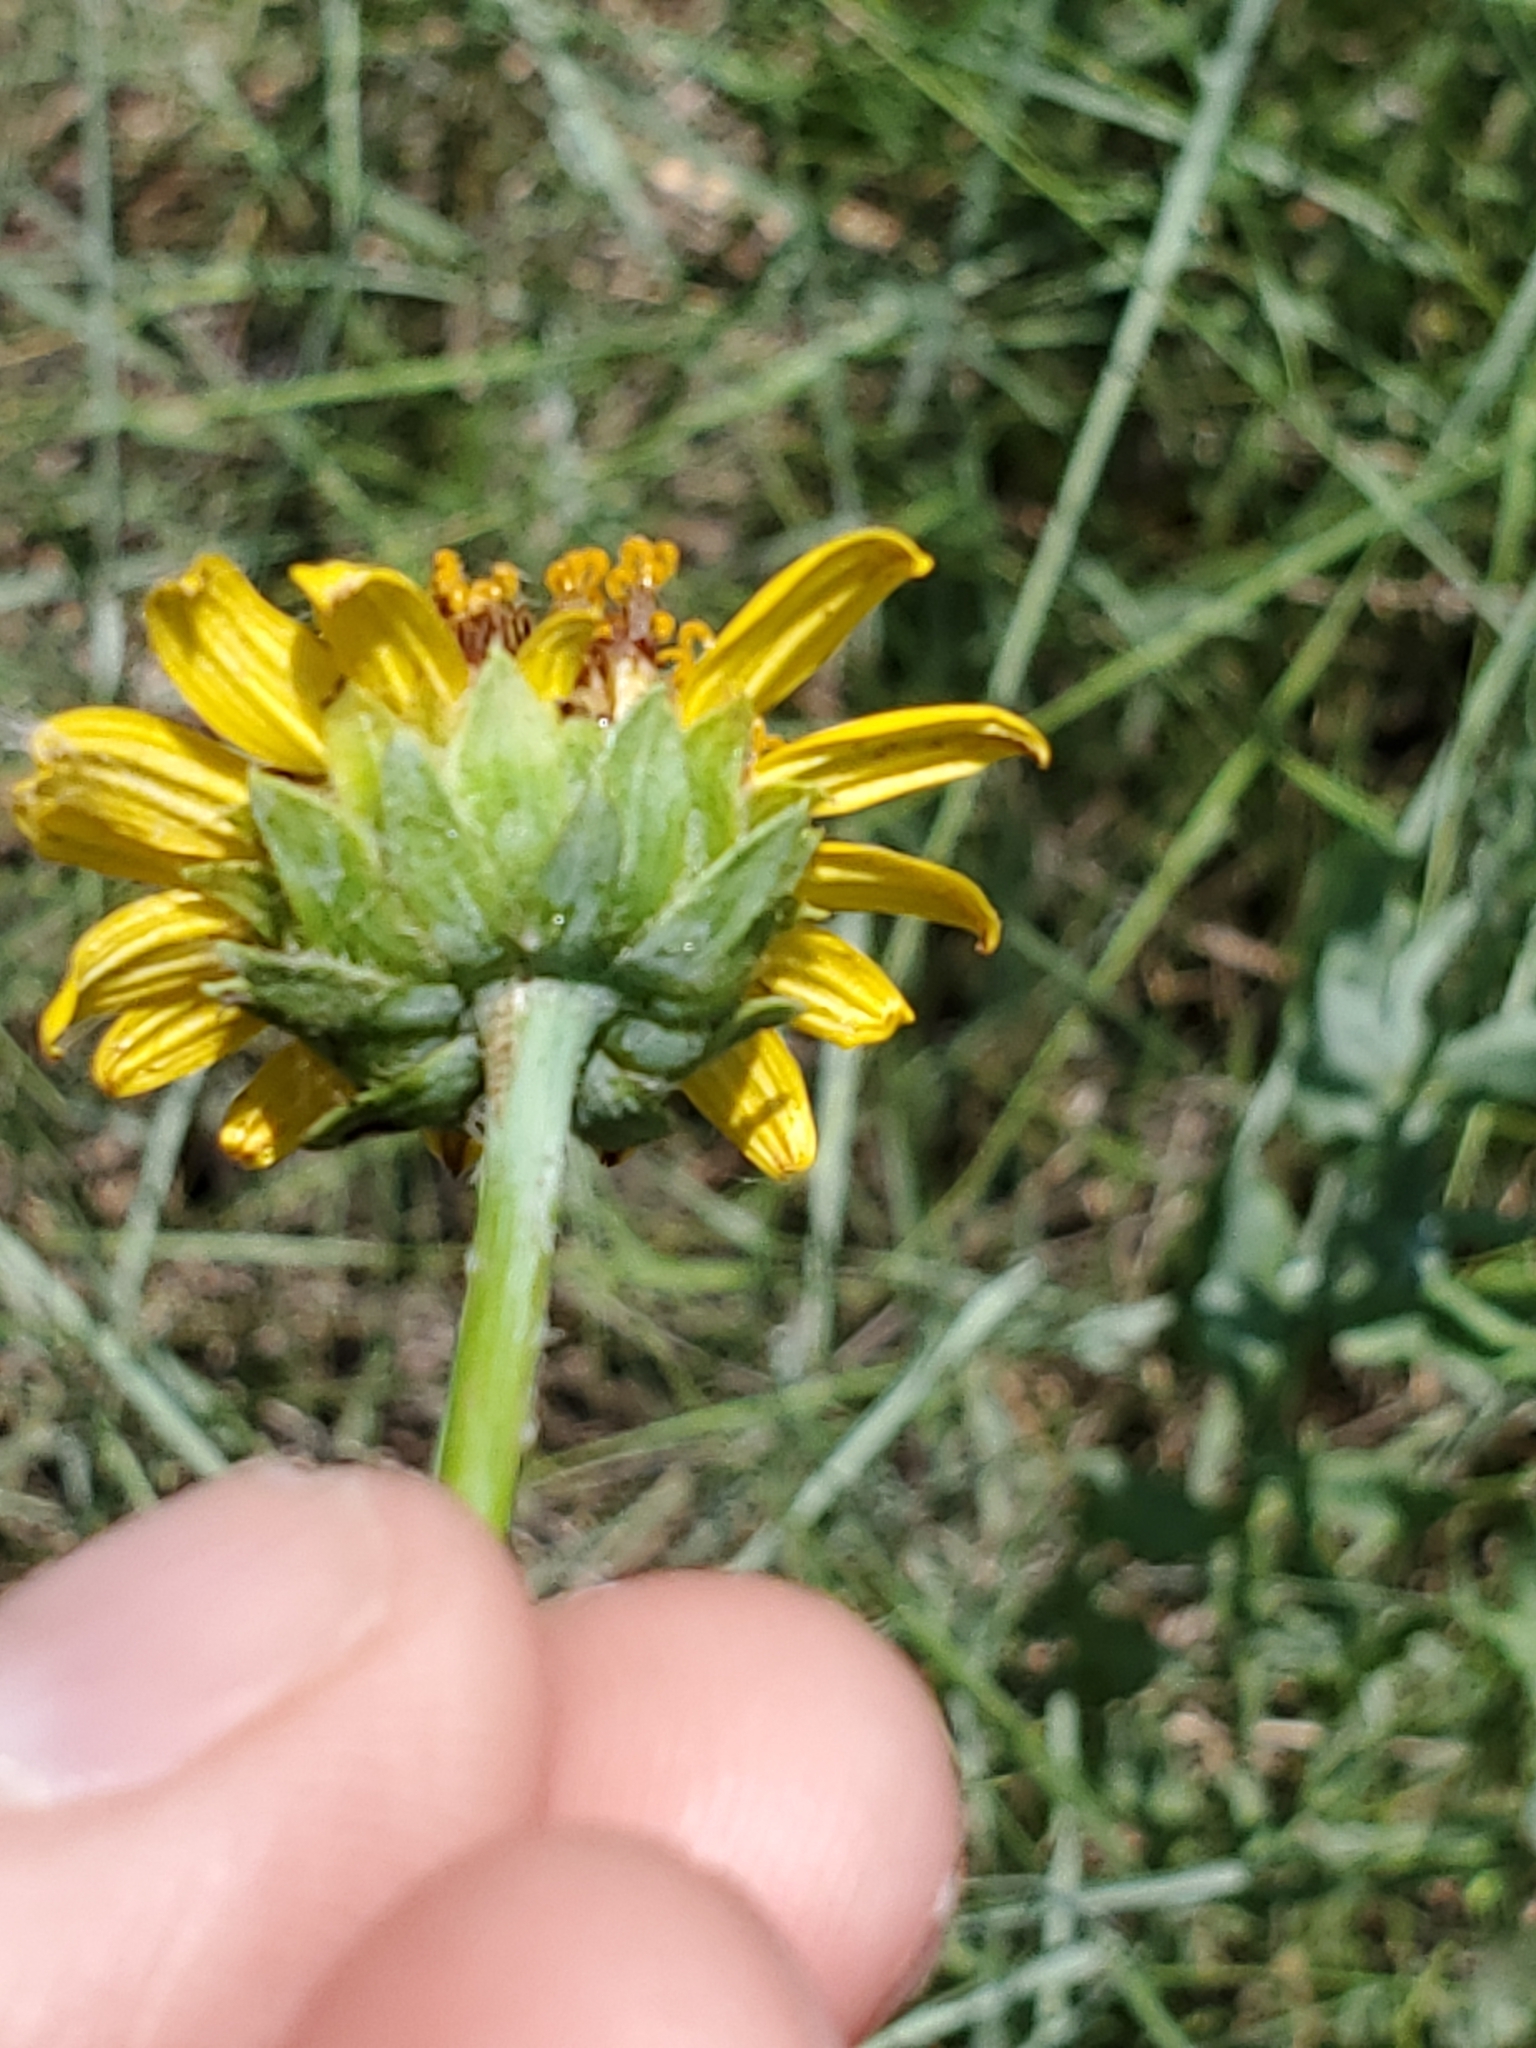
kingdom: Plantae
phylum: Tracheophyta
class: Magnoliopsida
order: Asterales
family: Asteraceae
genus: Helianthus
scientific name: Helianthus ciliaris
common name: Texas blueweed
